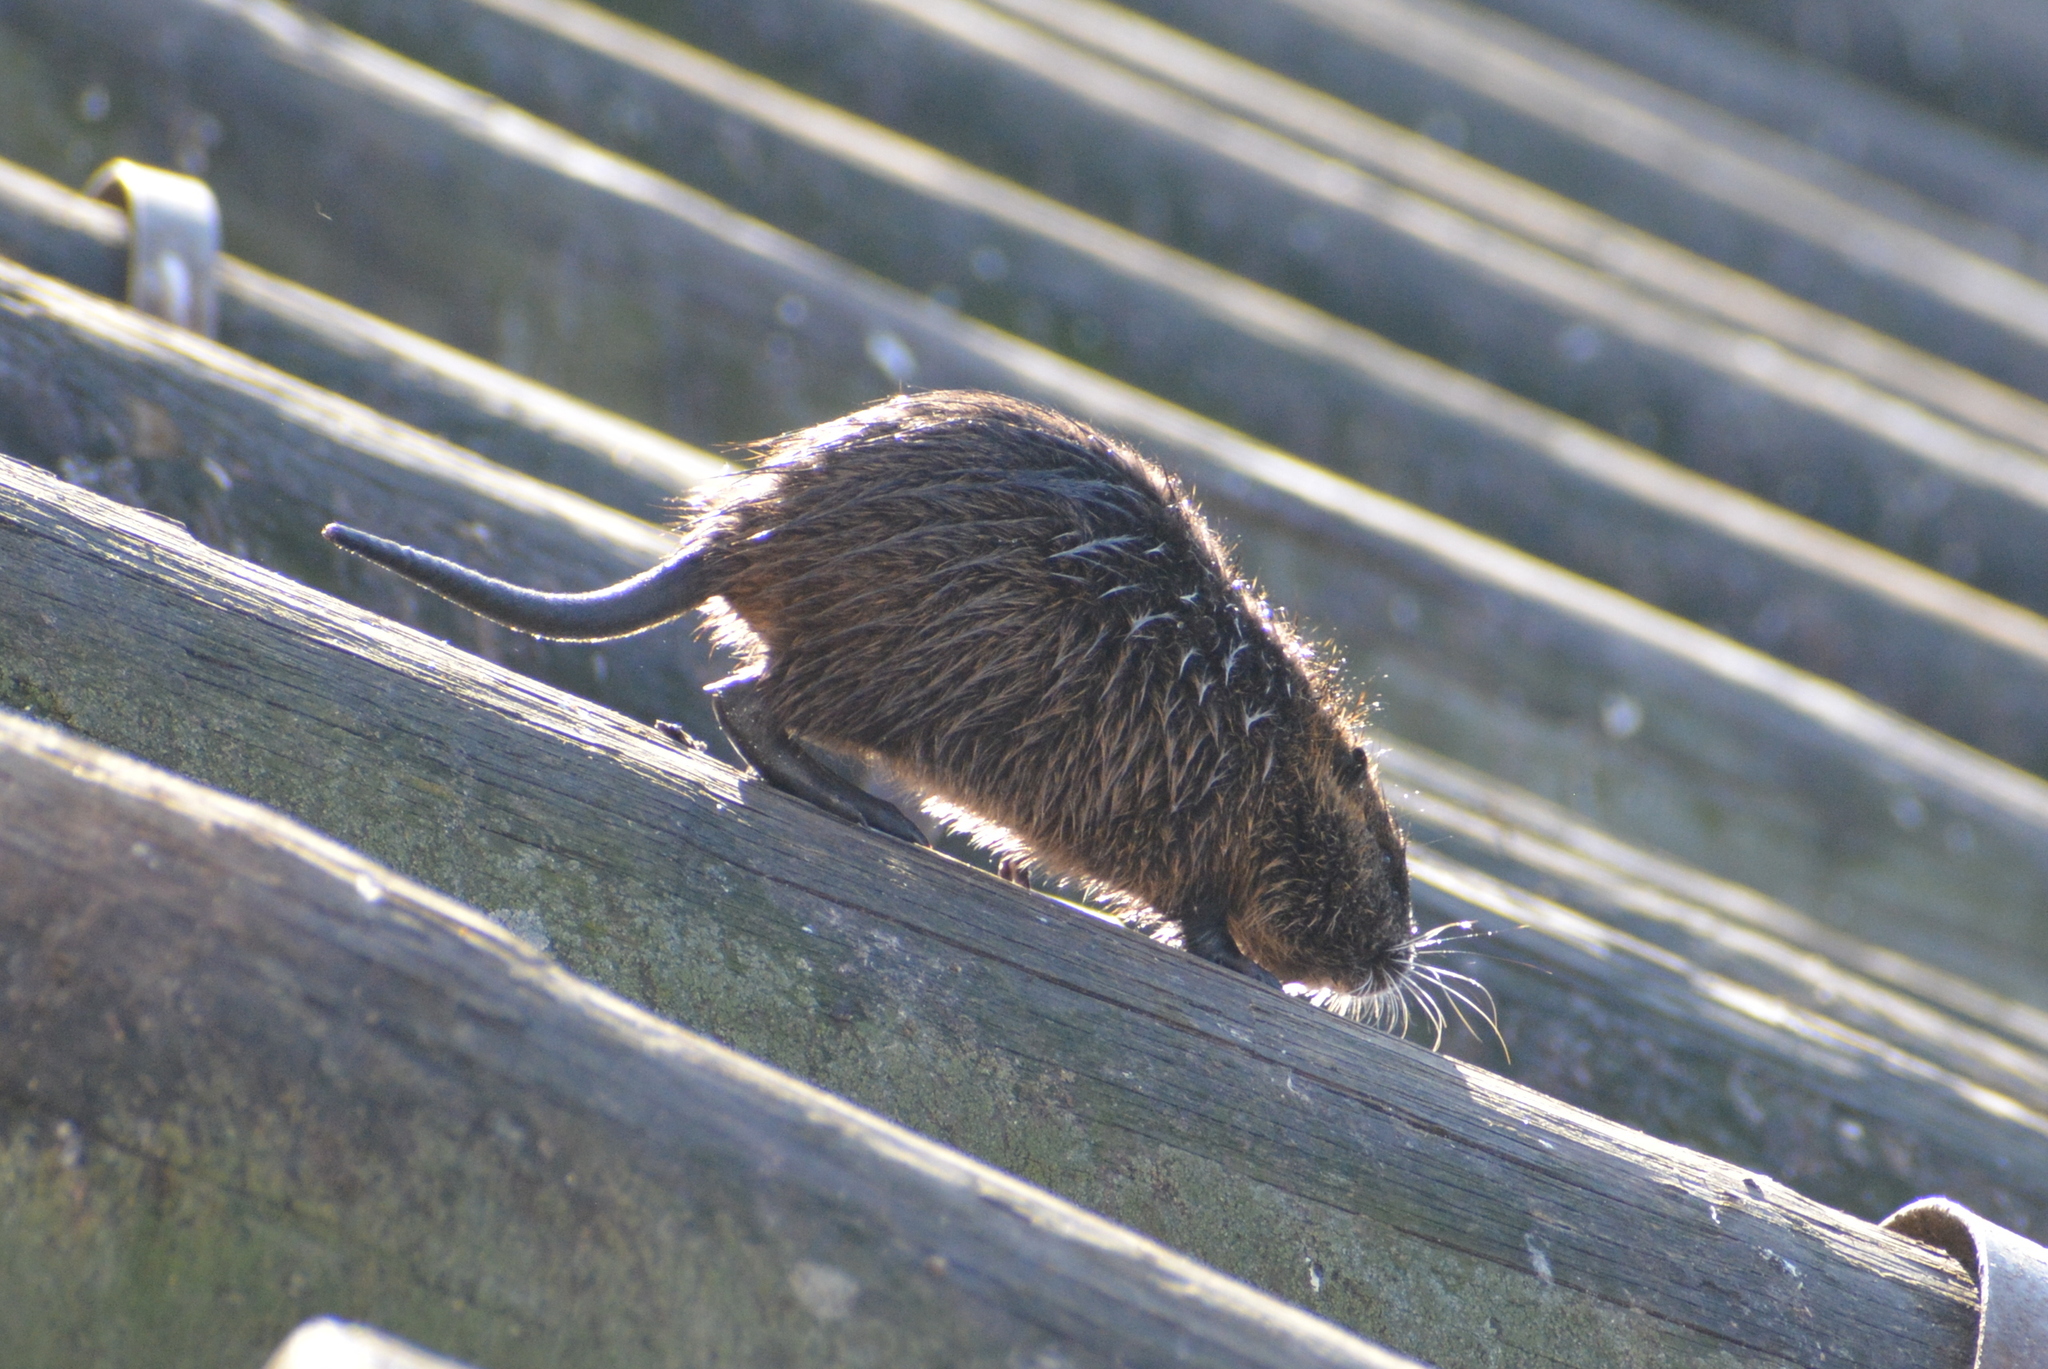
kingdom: Animalia
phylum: Chordata
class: Mammalia
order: Rodentia
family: Myocastoridae
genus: Myocastor
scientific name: Myocastor coypus
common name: Coypu
